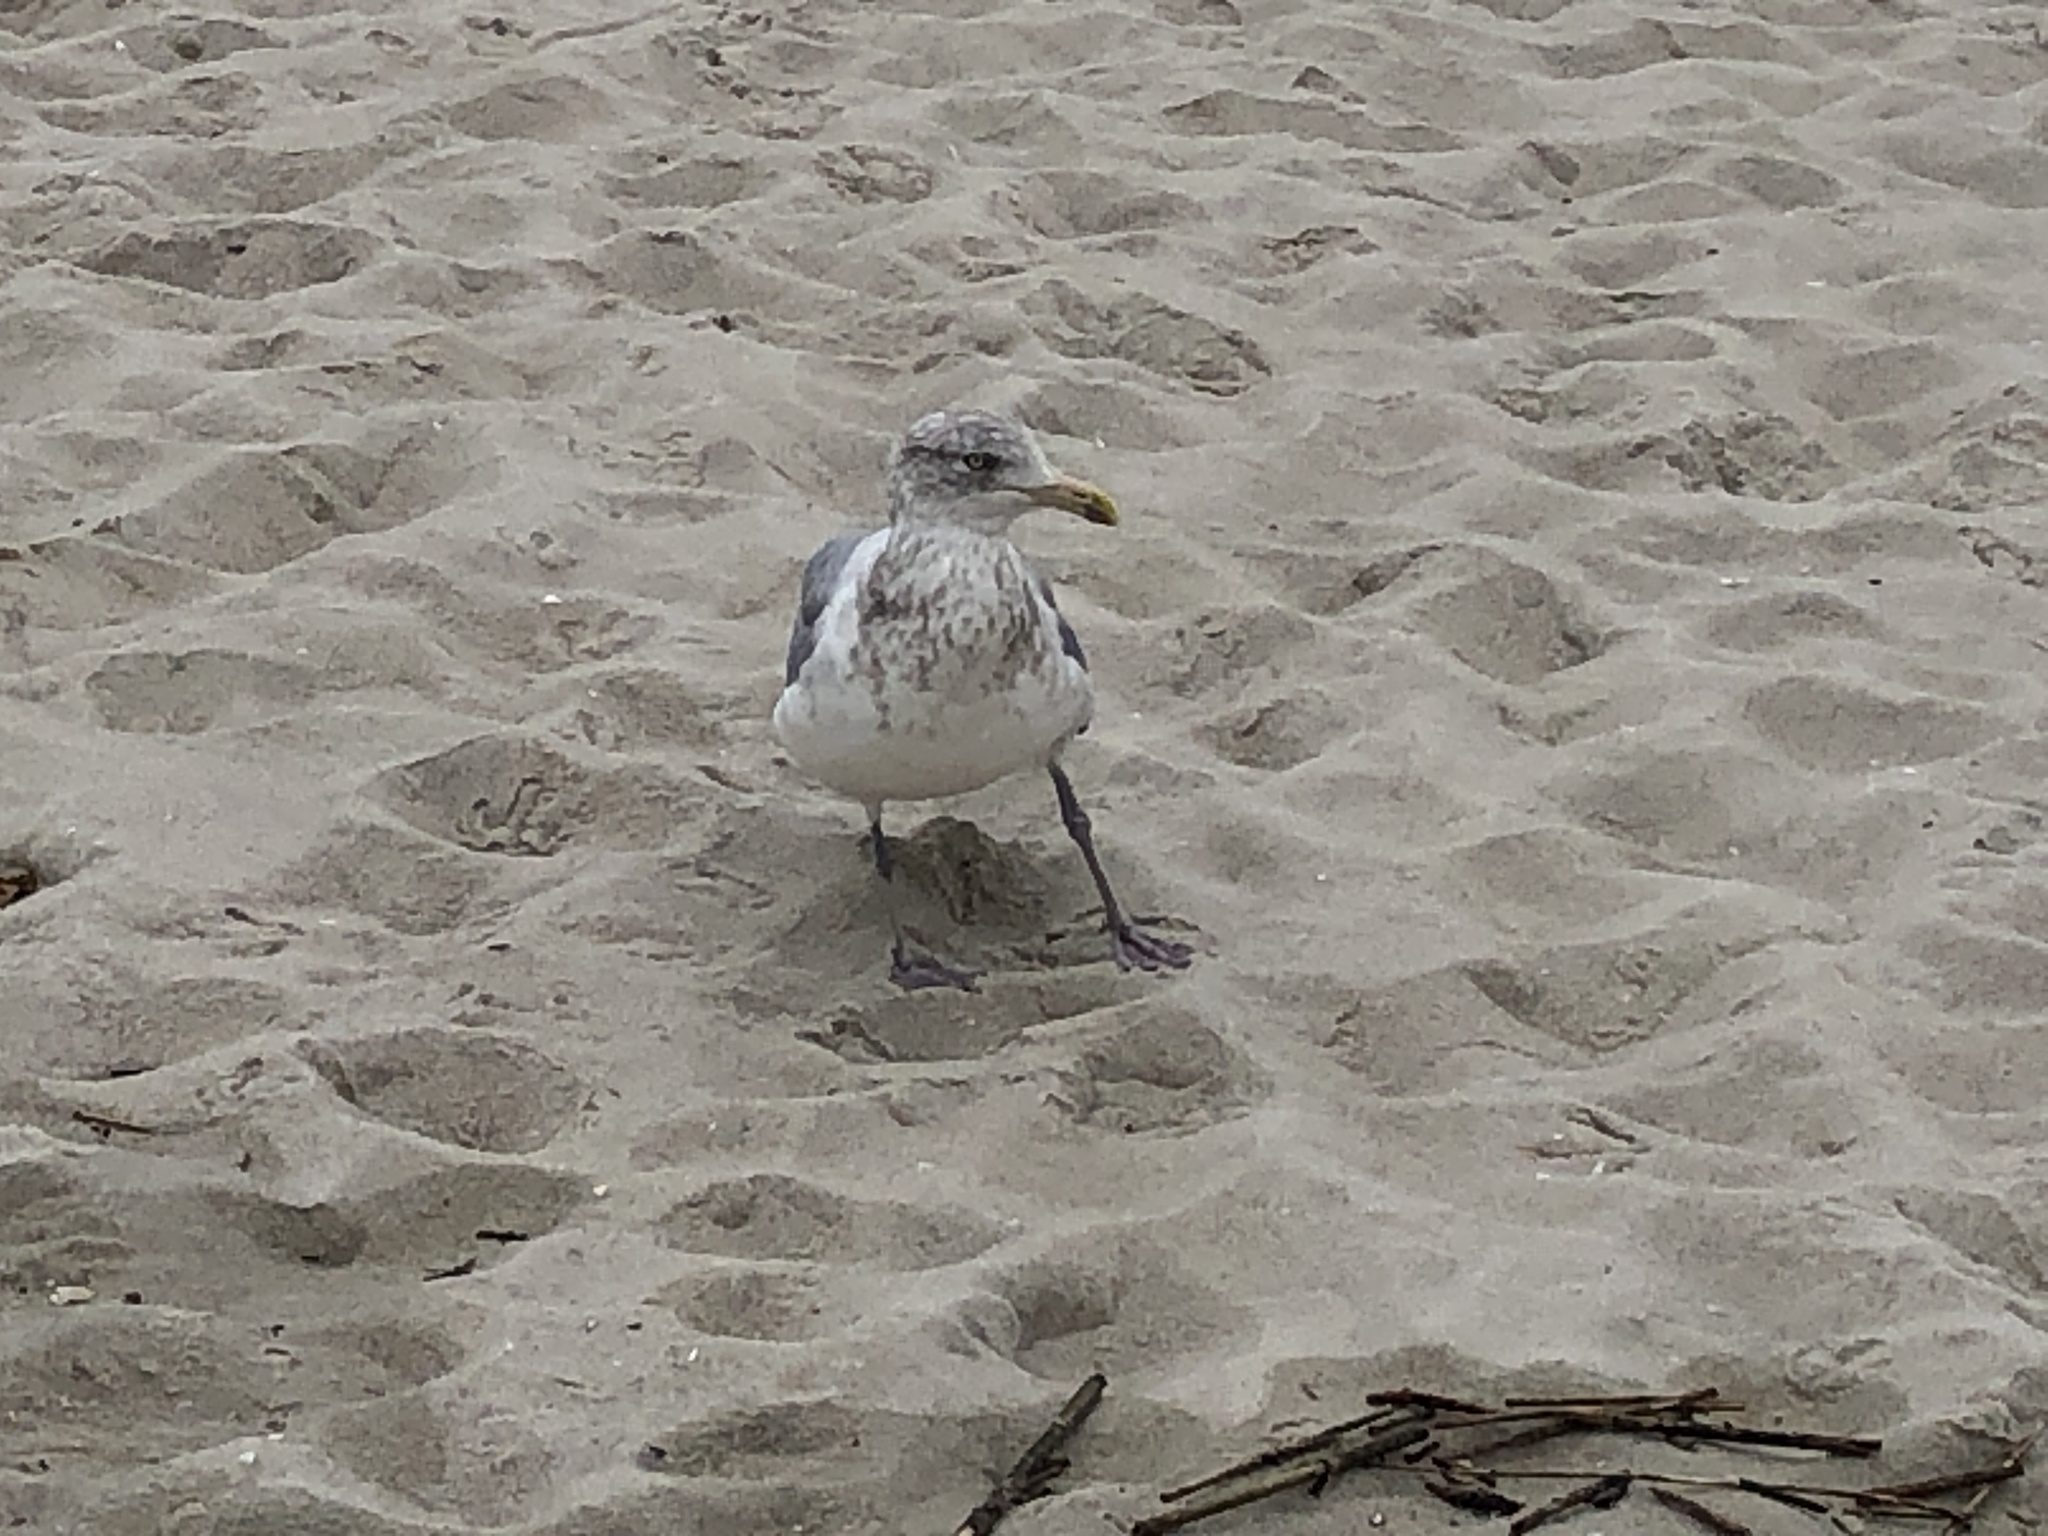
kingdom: Animalia
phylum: Chordata
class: Aves
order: Charadriiformes
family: Laridae
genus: Larus
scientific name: Larus argentatus
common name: Herring gull
